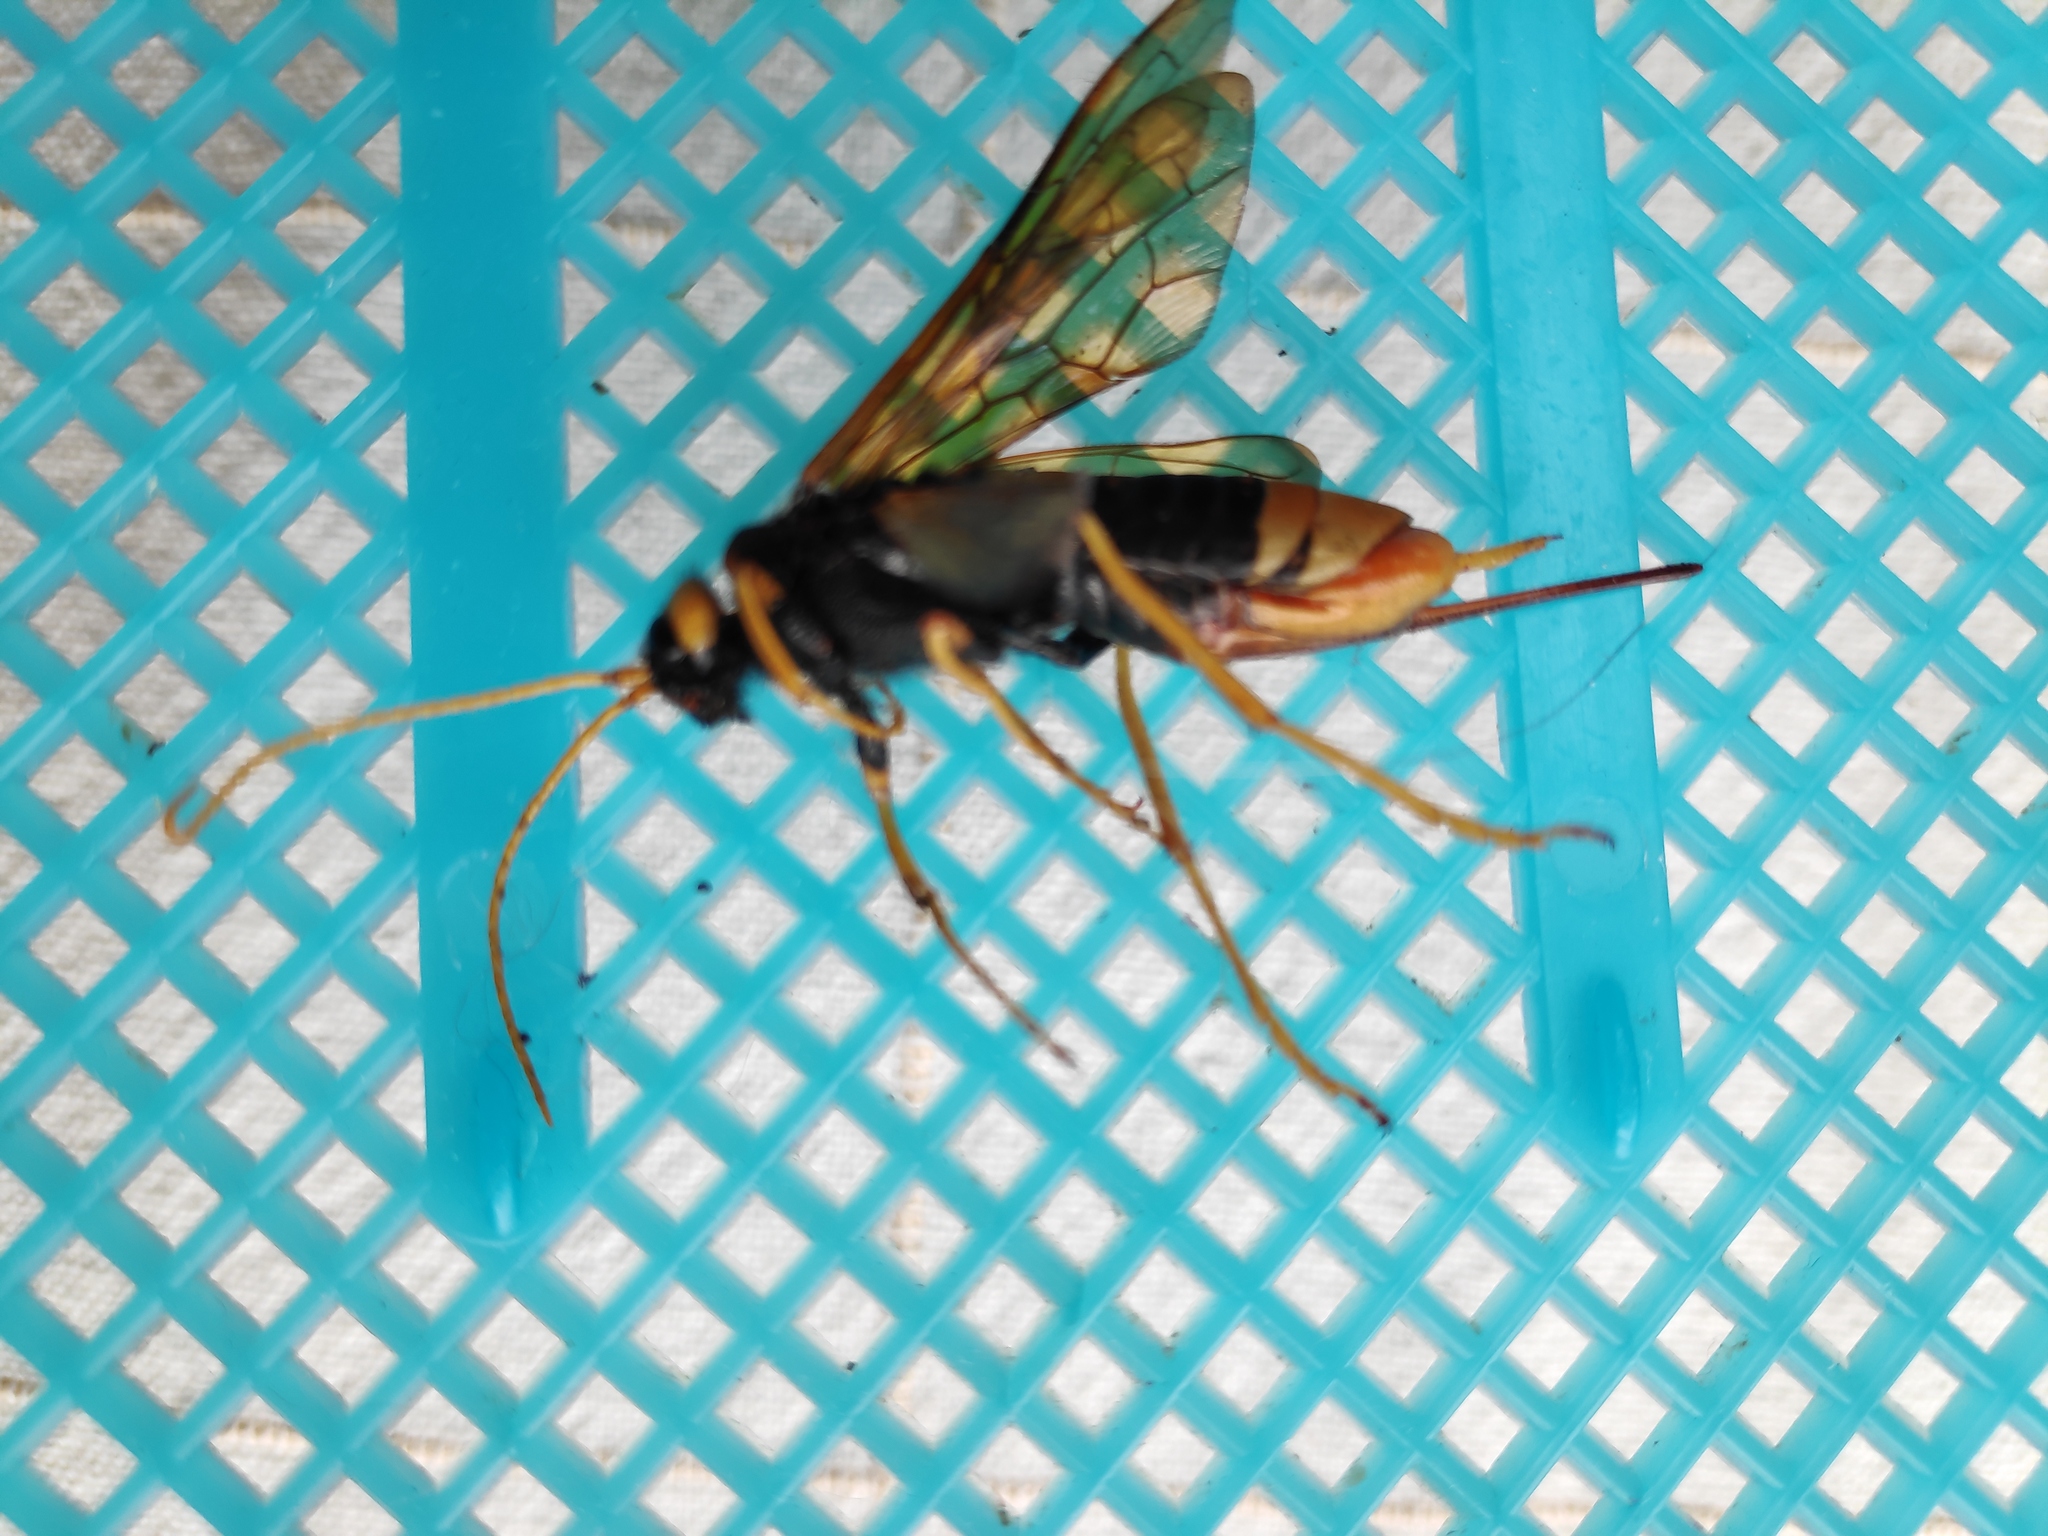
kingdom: Animalia
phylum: Arthropoda
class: Insecta
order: Hymenoptera
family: Siricidae
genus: Urocerus
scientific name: Urocerus gigas
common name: Giant woodwasp
